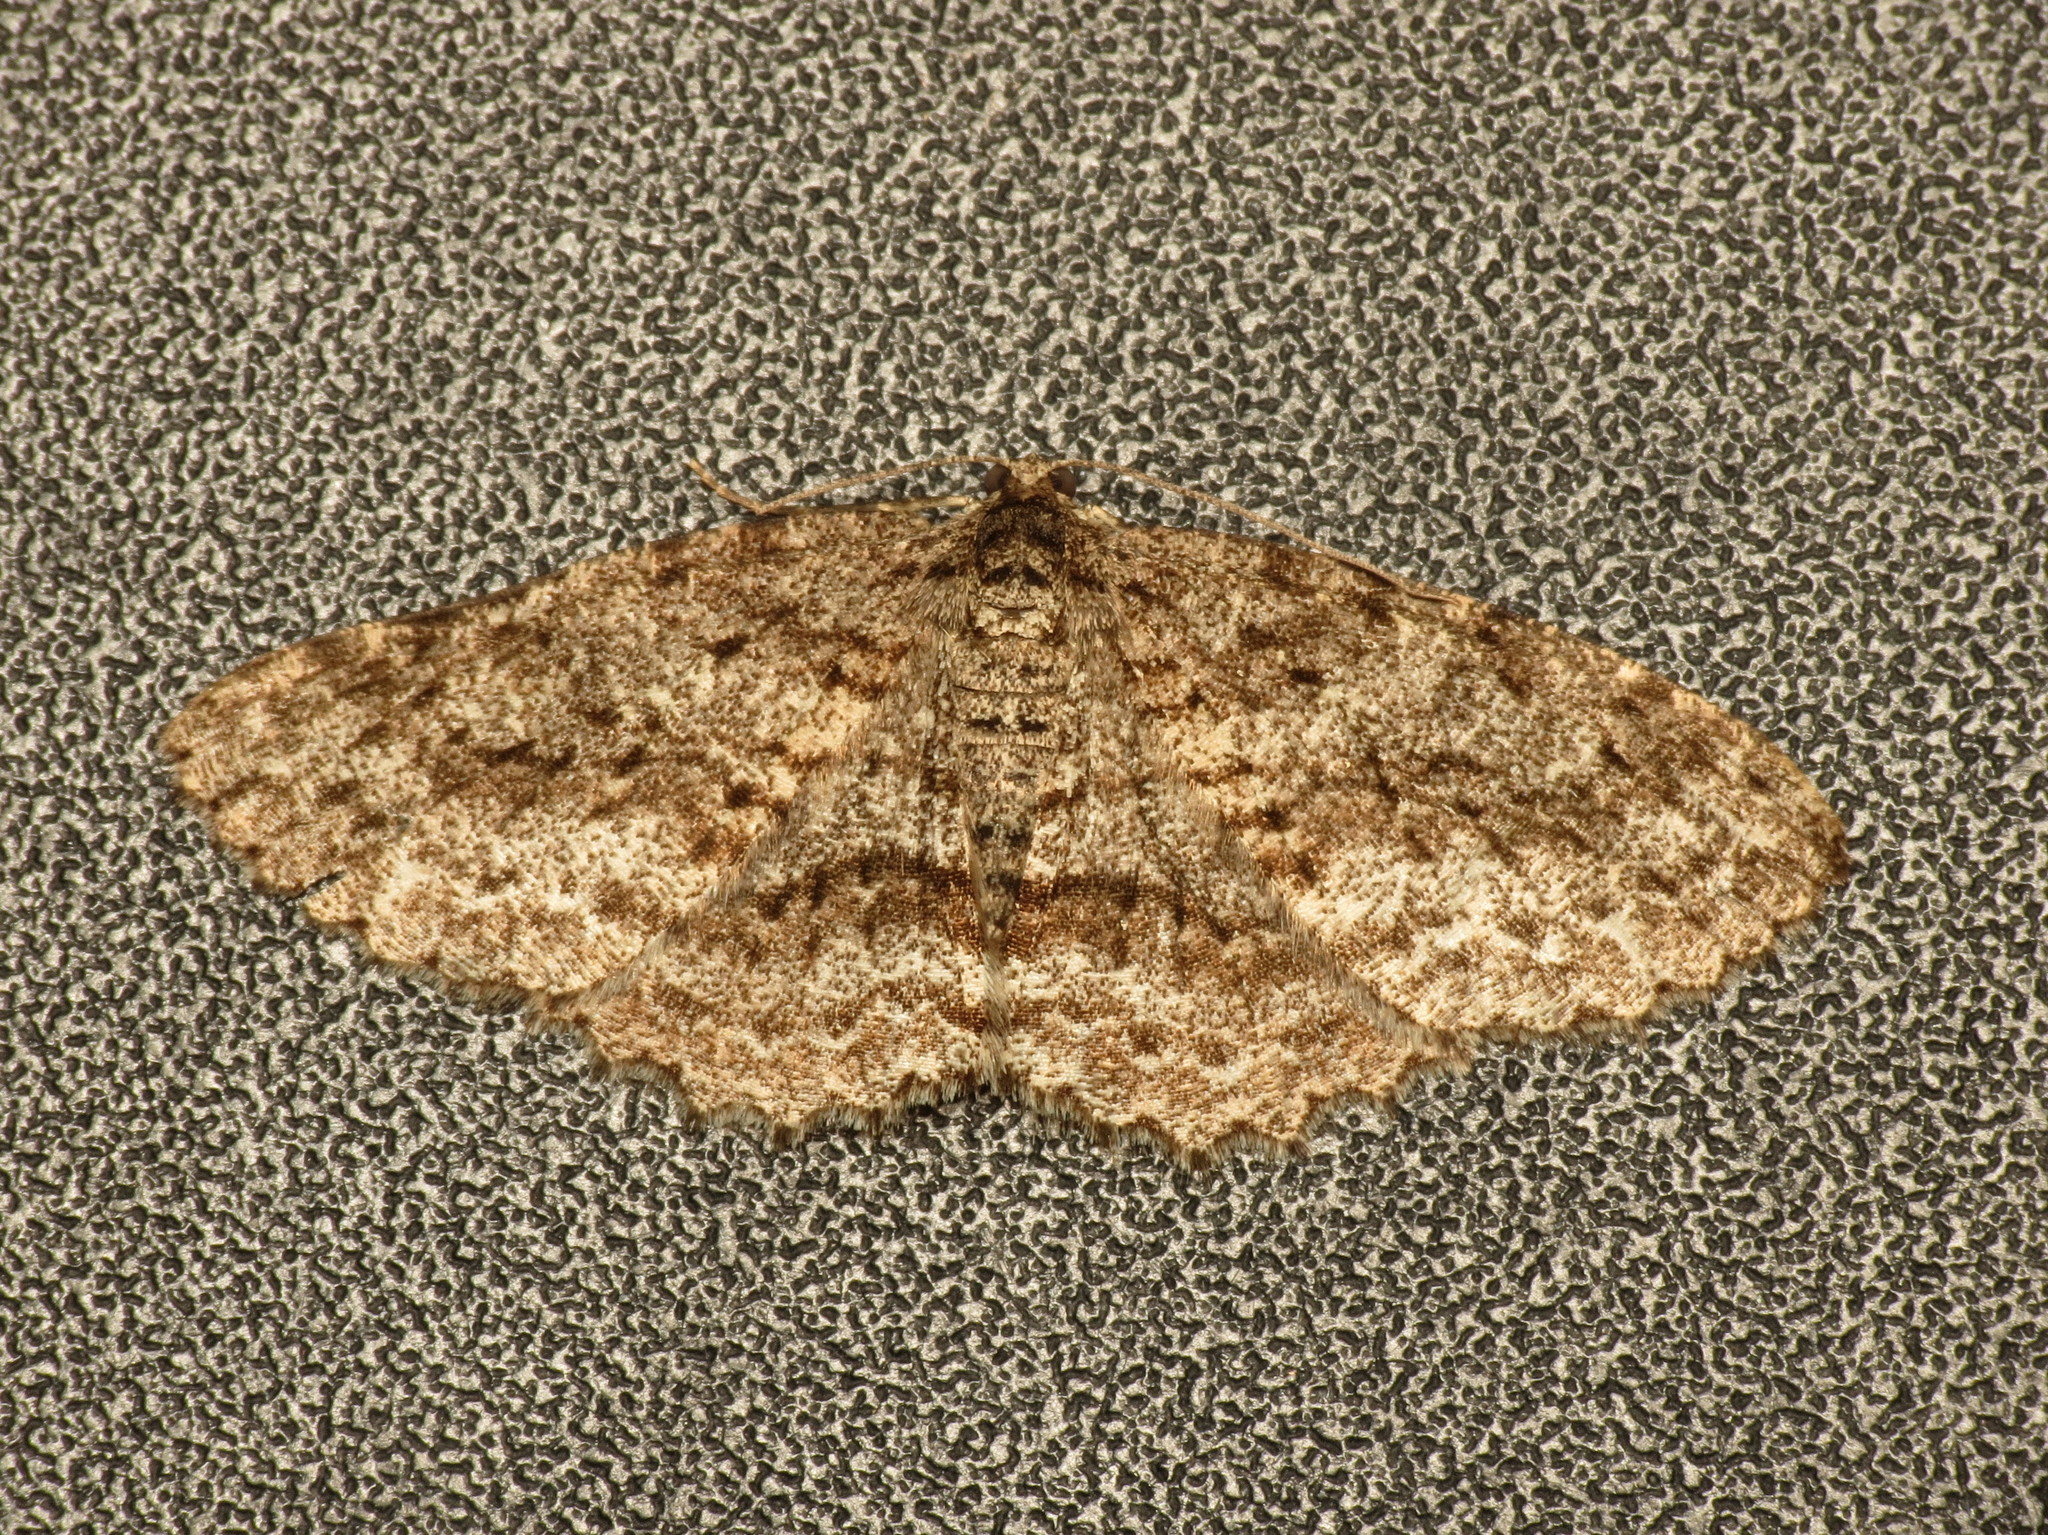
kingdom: Animalia
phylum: Arthropoda
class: Insecta
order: Lepidoptera
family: Geometridae
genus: Ectropis
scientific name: Ectropis fractaria
